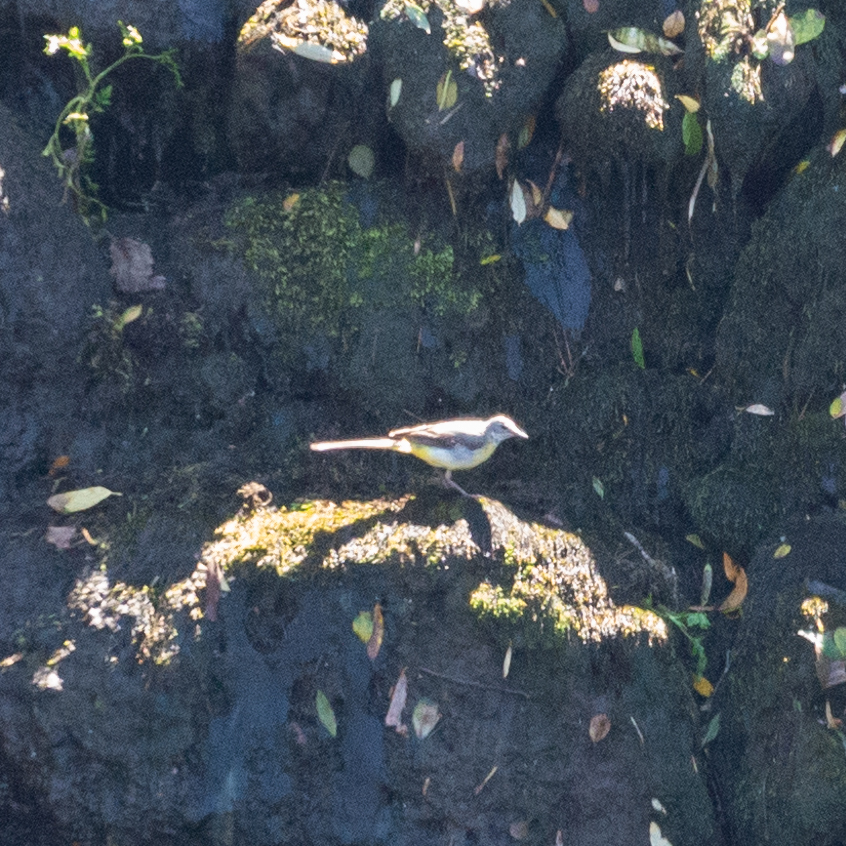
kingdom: Animalia
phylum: Chordata
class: Aves
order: Passeriformes
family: Motacillidae
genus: Motacilla
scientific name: Motacilla cinerea
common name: Grey wagtail
